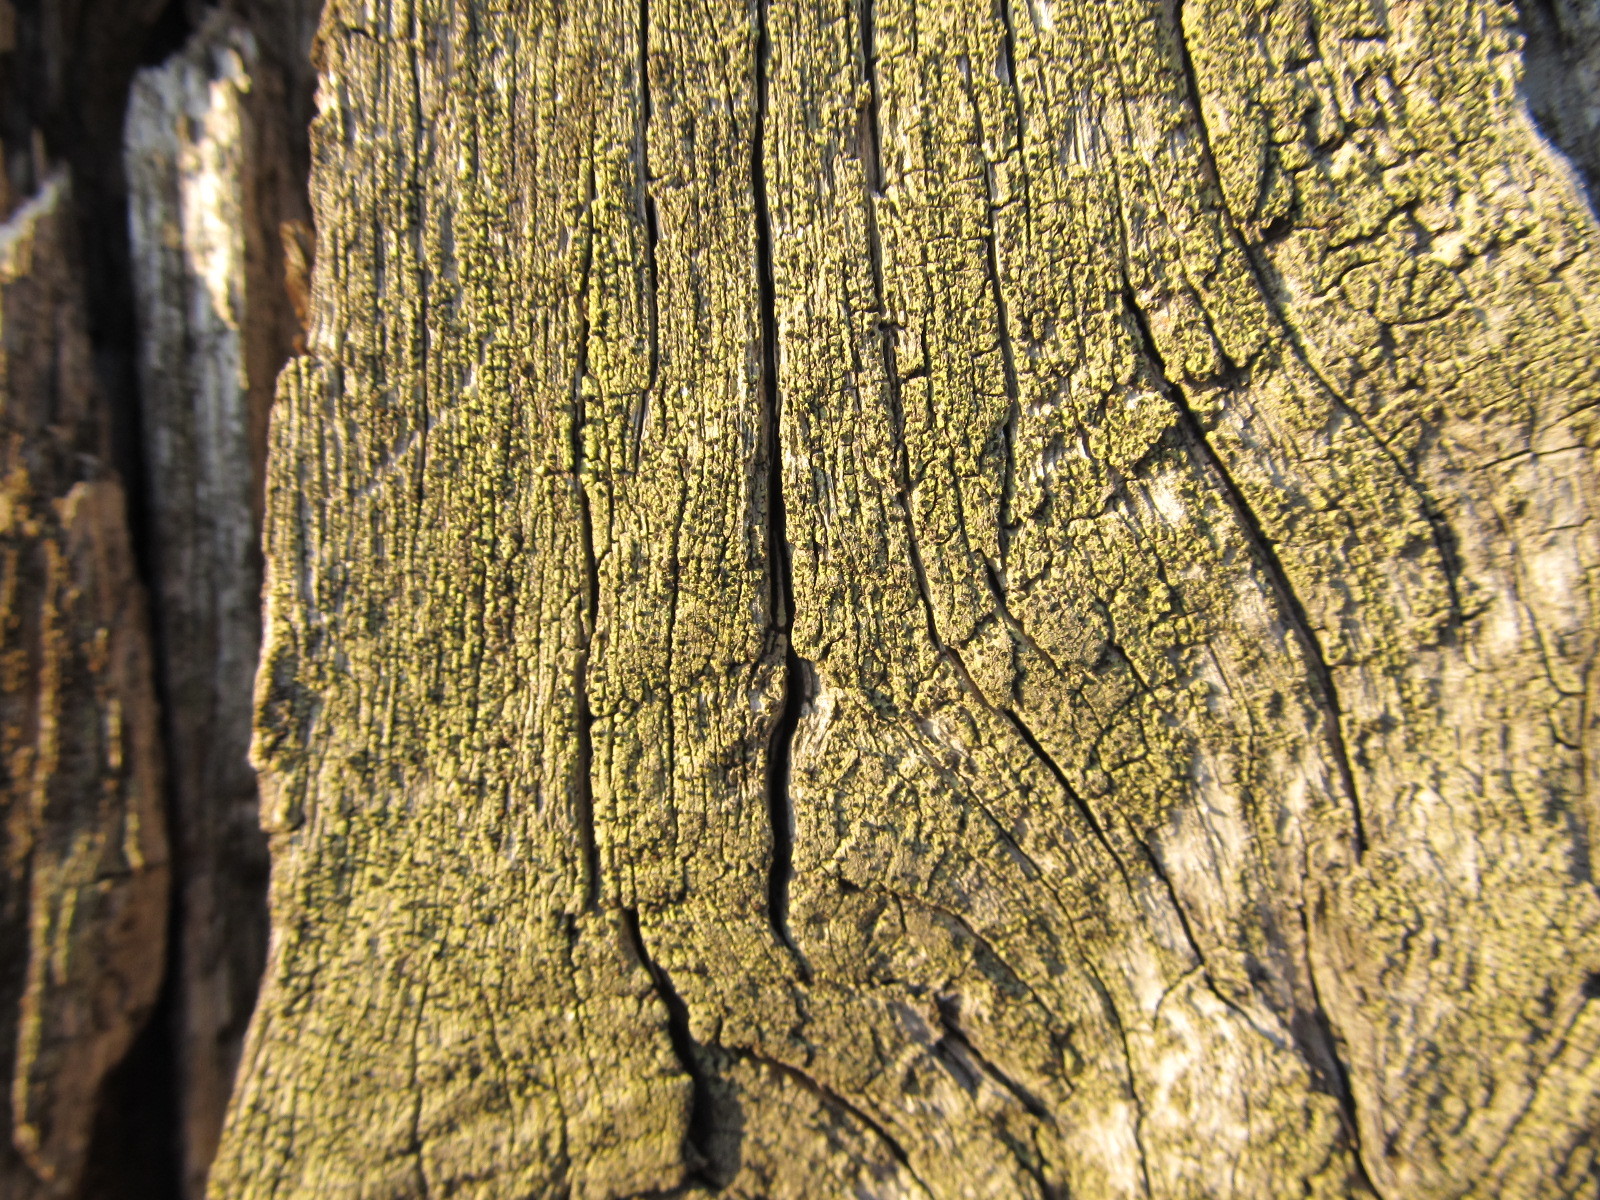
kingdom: Fungi
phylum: Ascomycota
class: Lecanoromycetes
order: Caliciales
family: Caliciaceae
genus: Calicium
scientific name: Calicium tigillare
